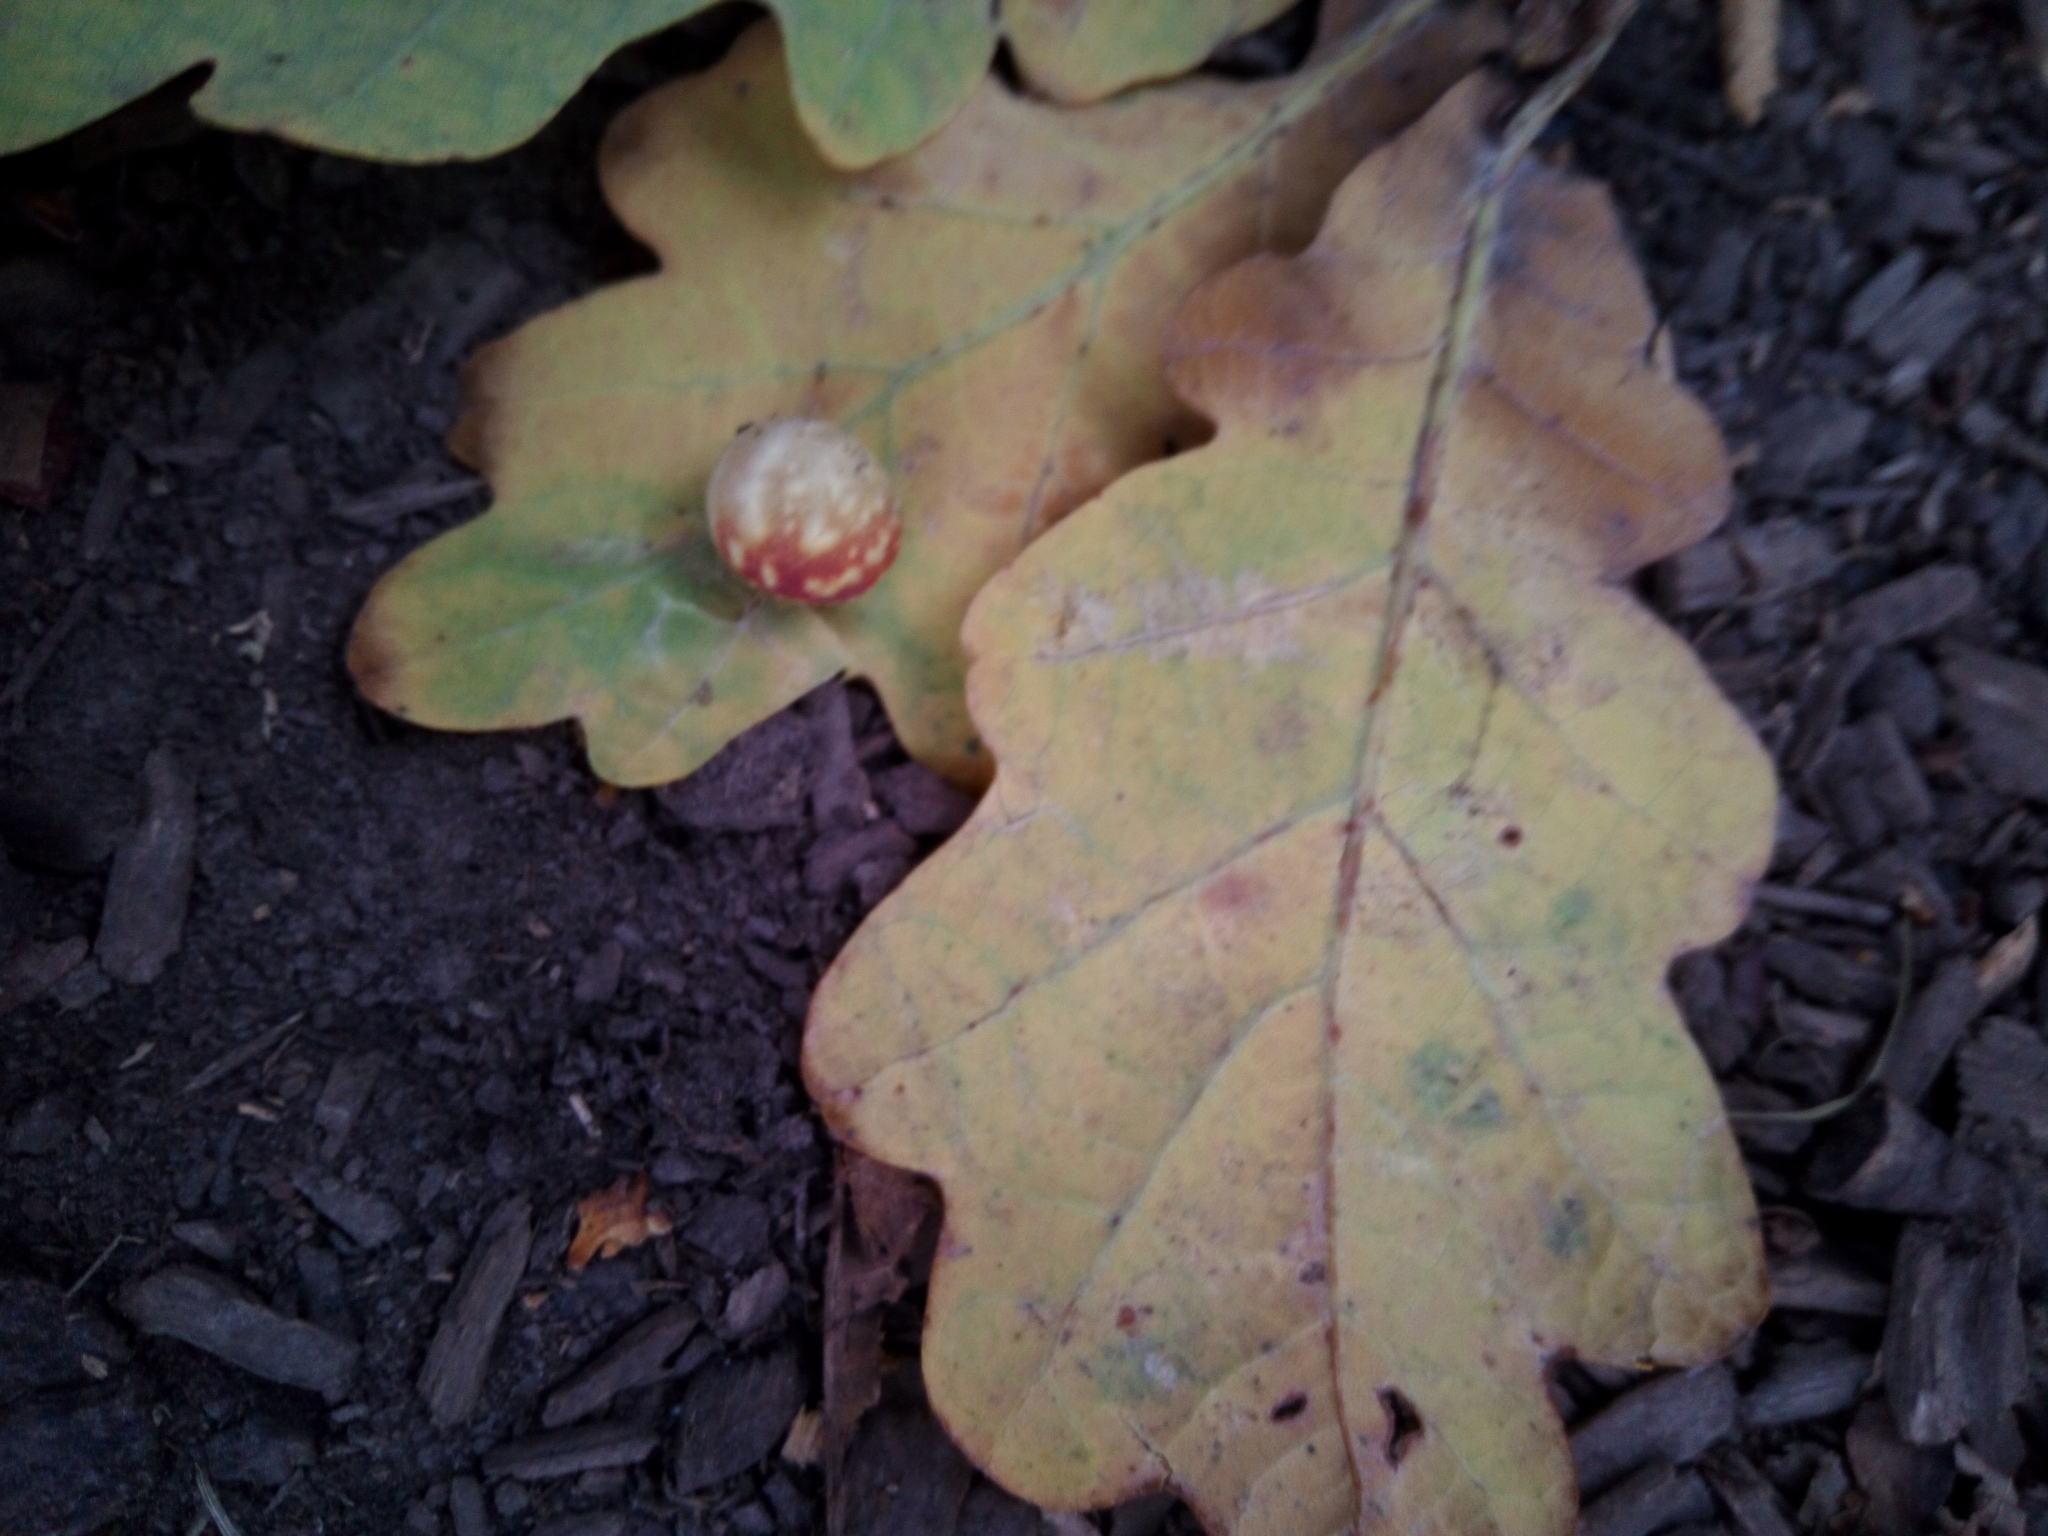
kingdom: Plantae
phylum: Tracheophyta
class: Magnoliopsida
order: Fagales
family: Fagaceae
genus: Quercus
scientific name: Quercus robur
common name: Pedunculate oak
